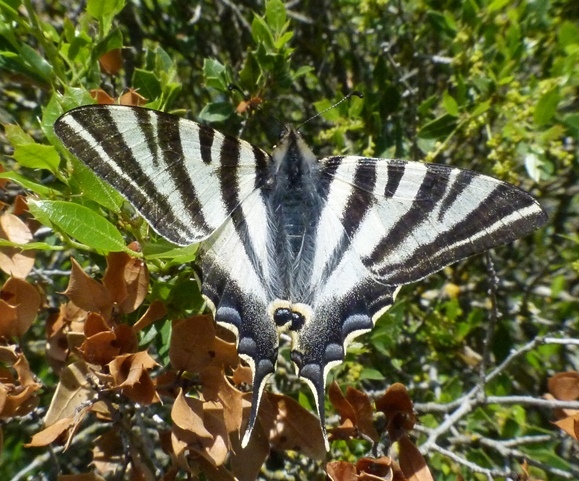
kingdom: Animalia
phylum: Arthropoda
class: Insecta
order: Lepidoptera
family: Papilionidae
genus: Iphiclides
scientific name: Iphiclides feisthamelii
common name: Iberian scarce swallowtail
